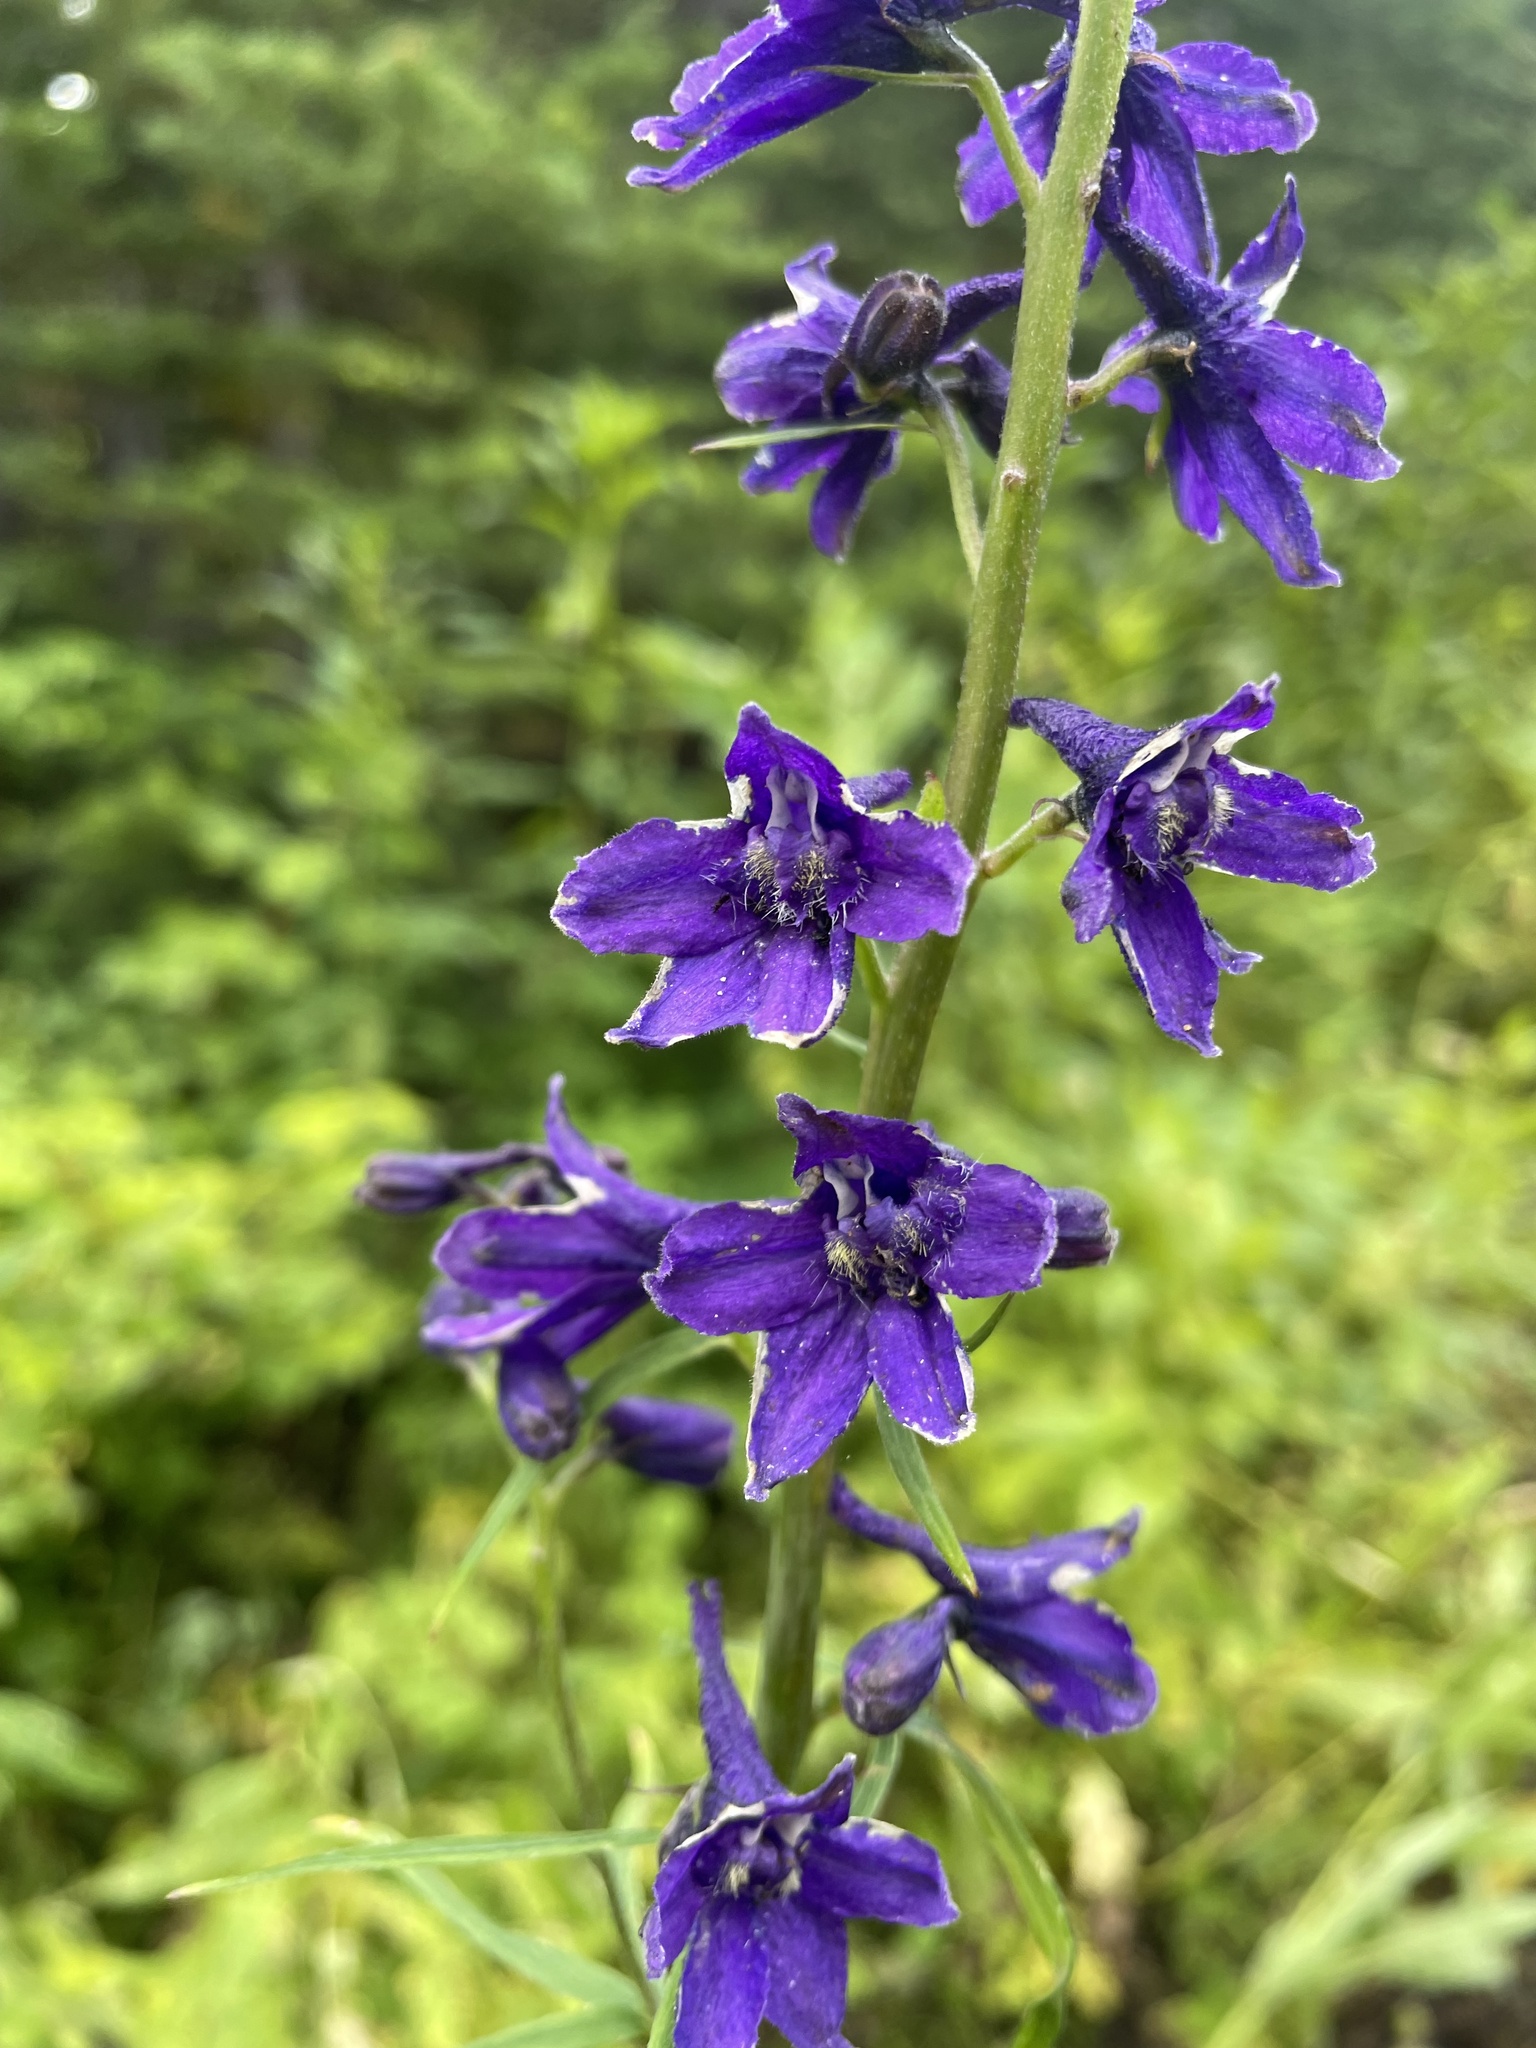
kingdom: Plantae
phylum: Tracheophyta
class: Magnoliopsida
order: Ranunculales
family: Ranunculaceae
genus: Delphinium
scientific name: Delphinium glaucum
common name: Brown's larkspur
